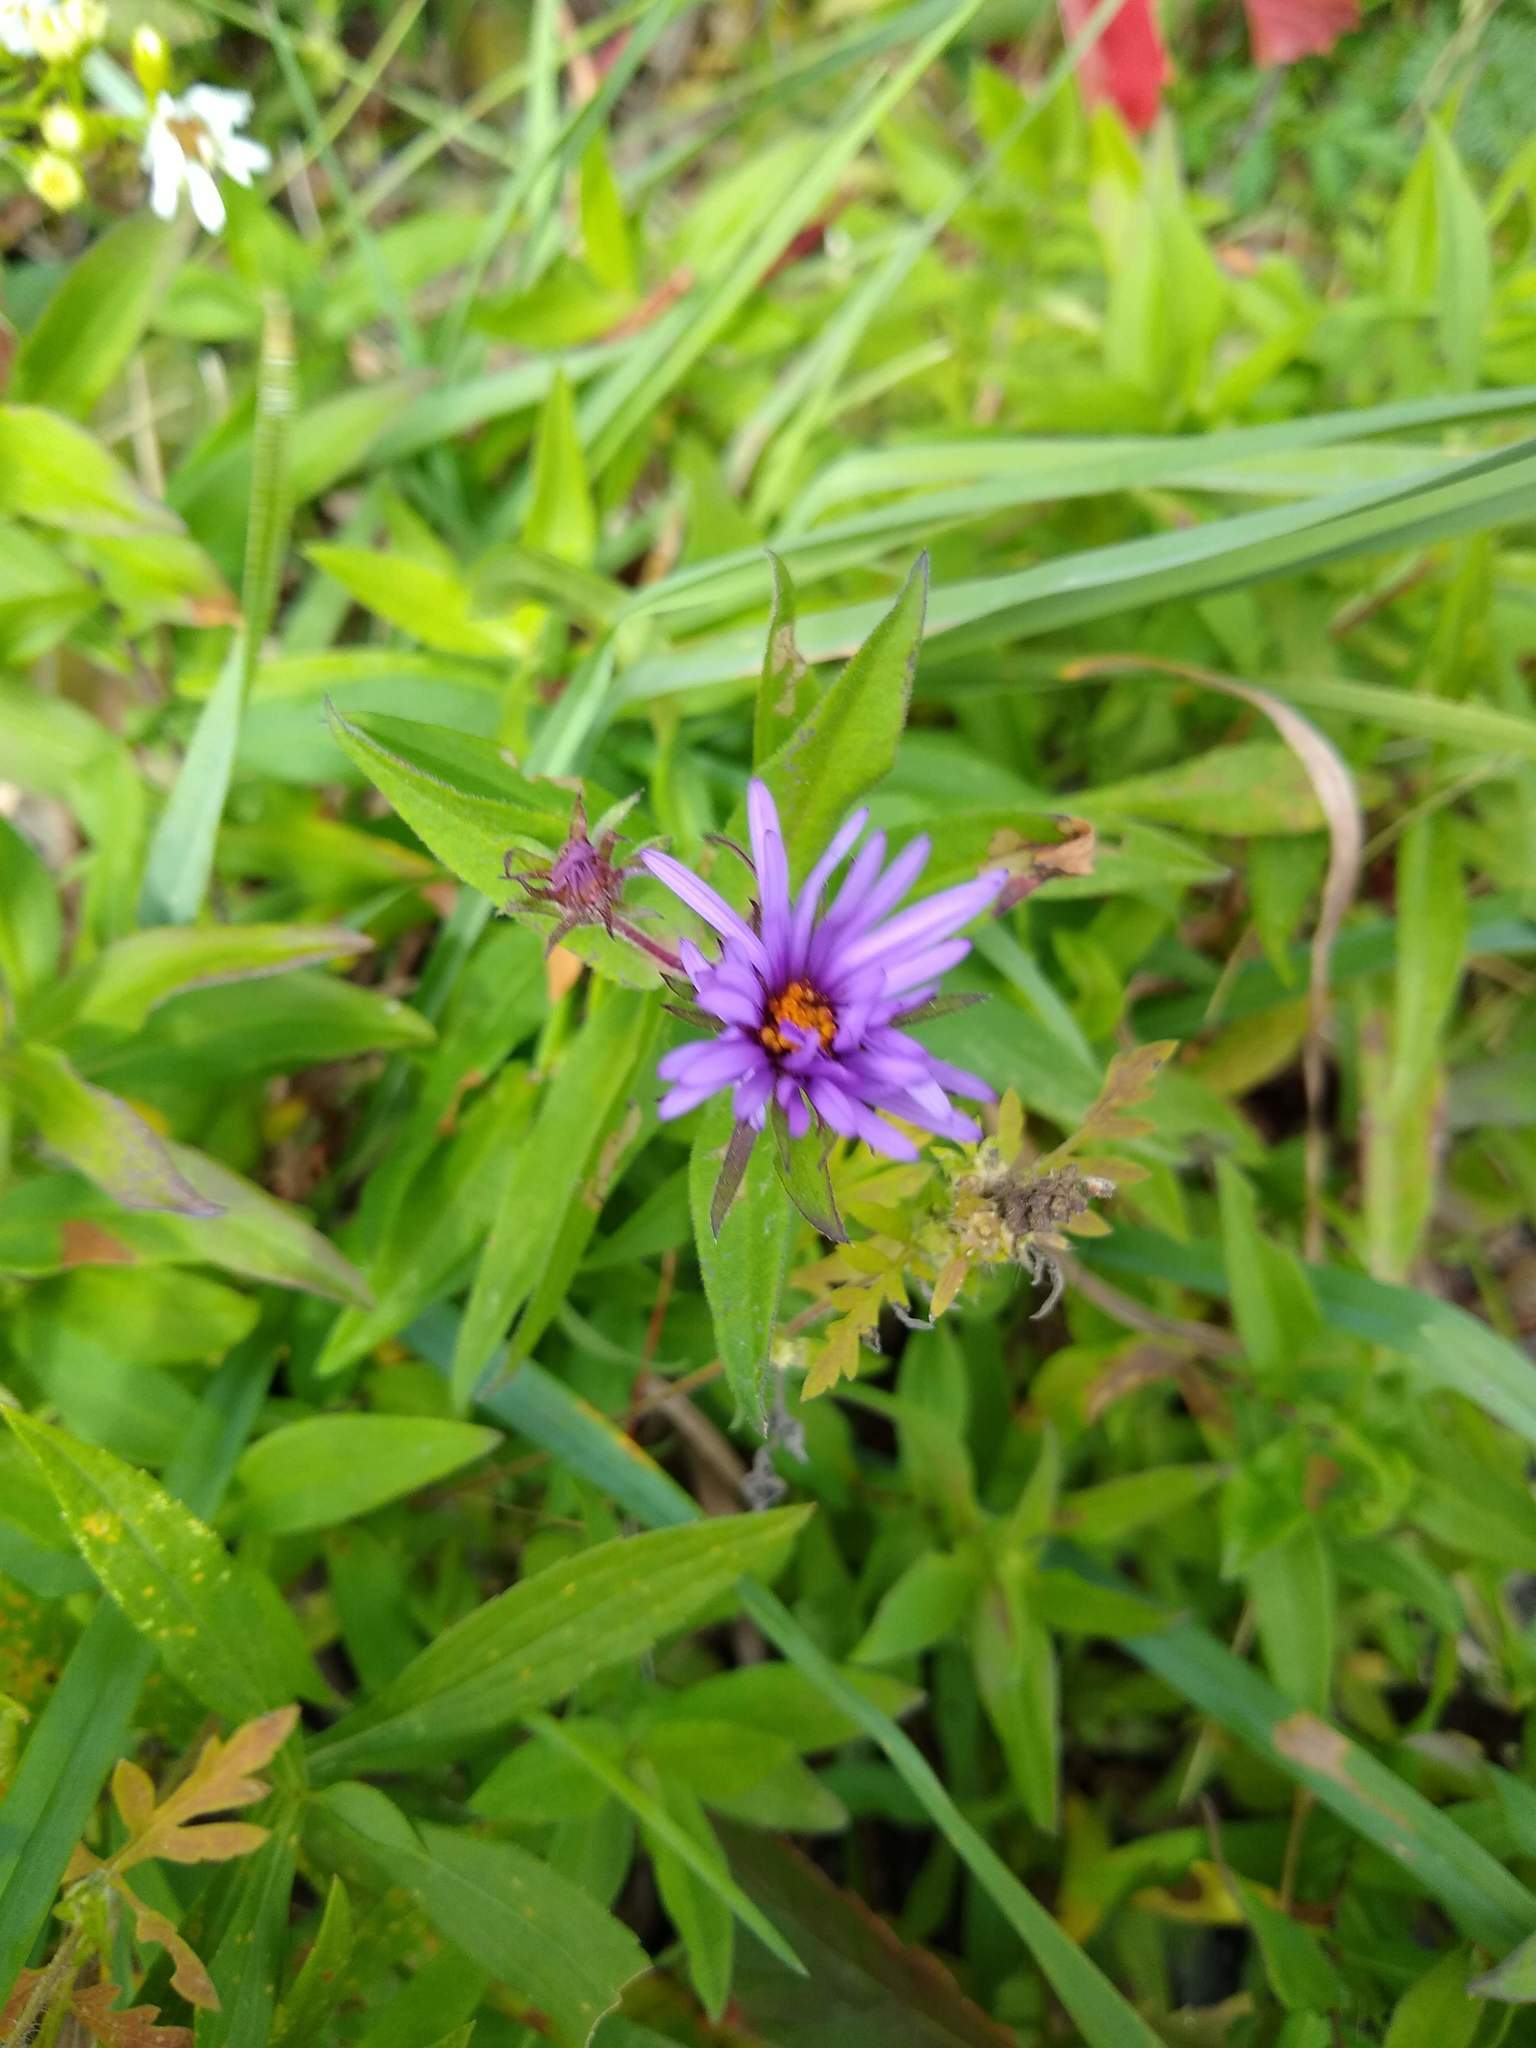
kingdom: Plantae
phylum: Tracheophyta
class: Magnoliopsida
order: Asterales
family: Asteraceae
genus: Symphyotrichum
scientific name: Symphyotrichum novae-angliae
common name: Michaelmas daisy
